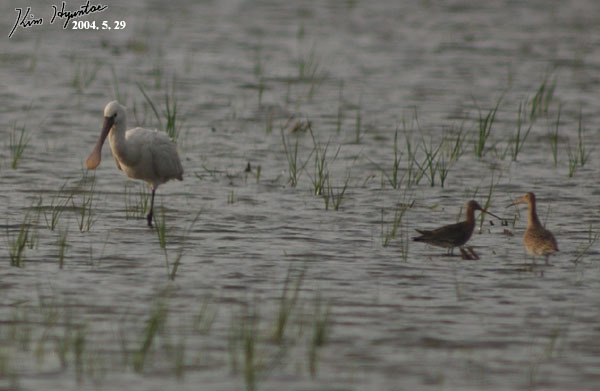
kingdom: Animalia
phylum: Chordata
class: Aves
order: Pelecaniformes
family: Threskiornithidae
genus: Platalea
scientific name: Platalea leucorodia
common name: Eurasian spoonbill
